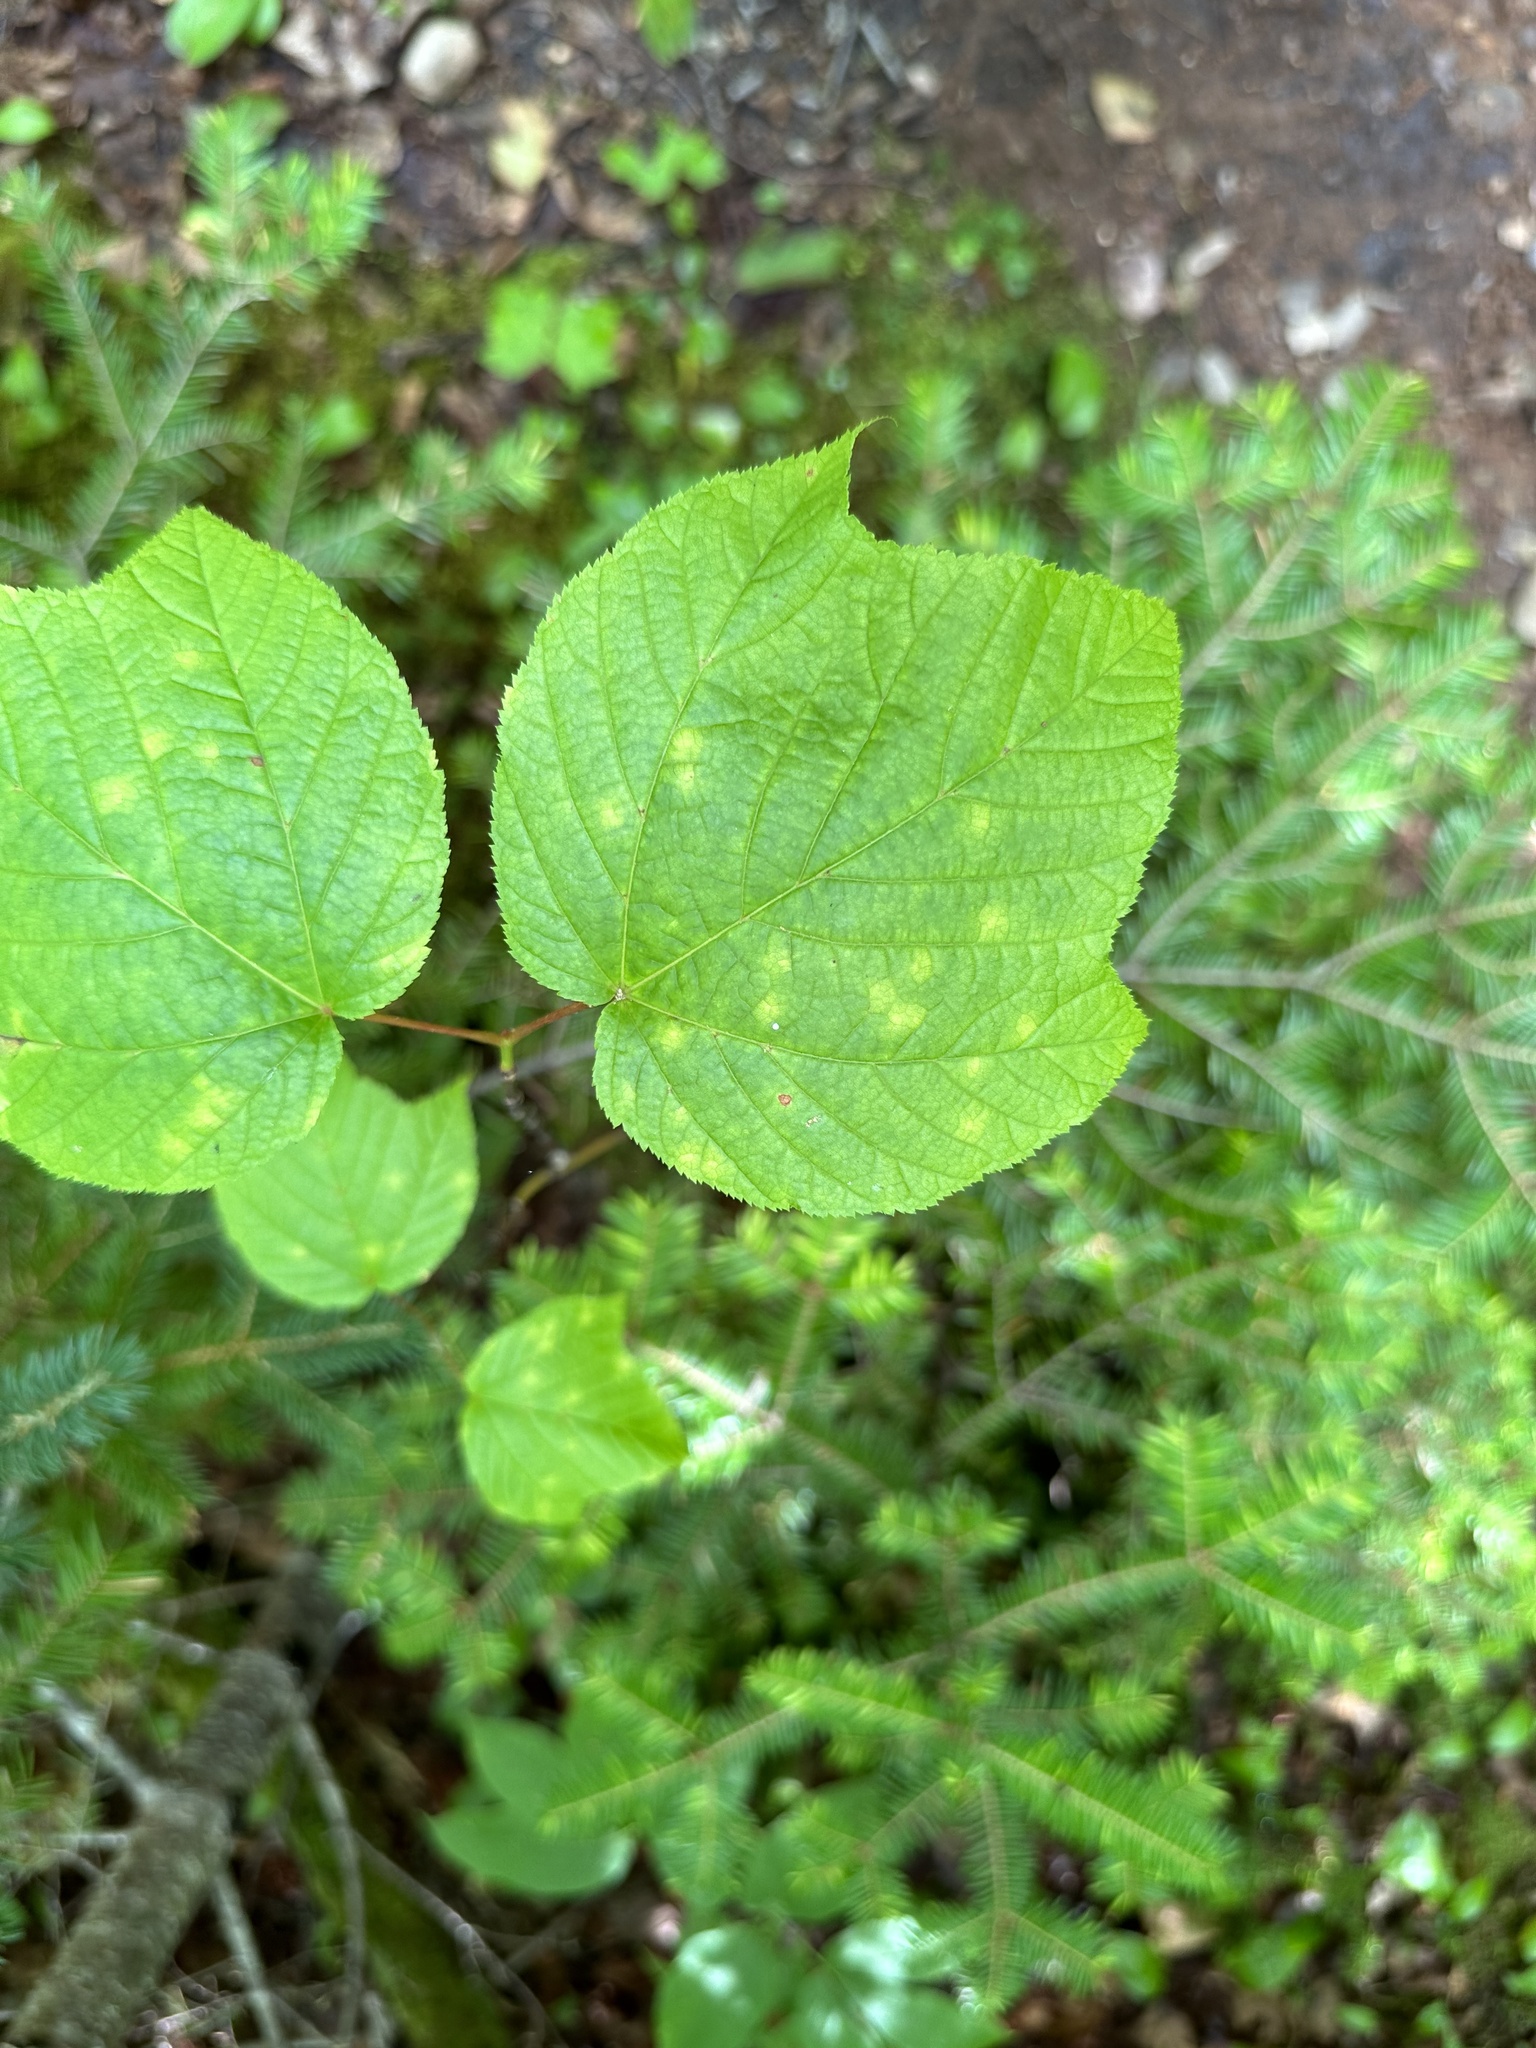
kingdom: Plantae
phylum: Tracheophyta
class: Magnoliopsida
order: Sapindales
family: Sapindaceae
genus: Acer
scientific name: Acer pensylvanicum
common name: Moosewood
